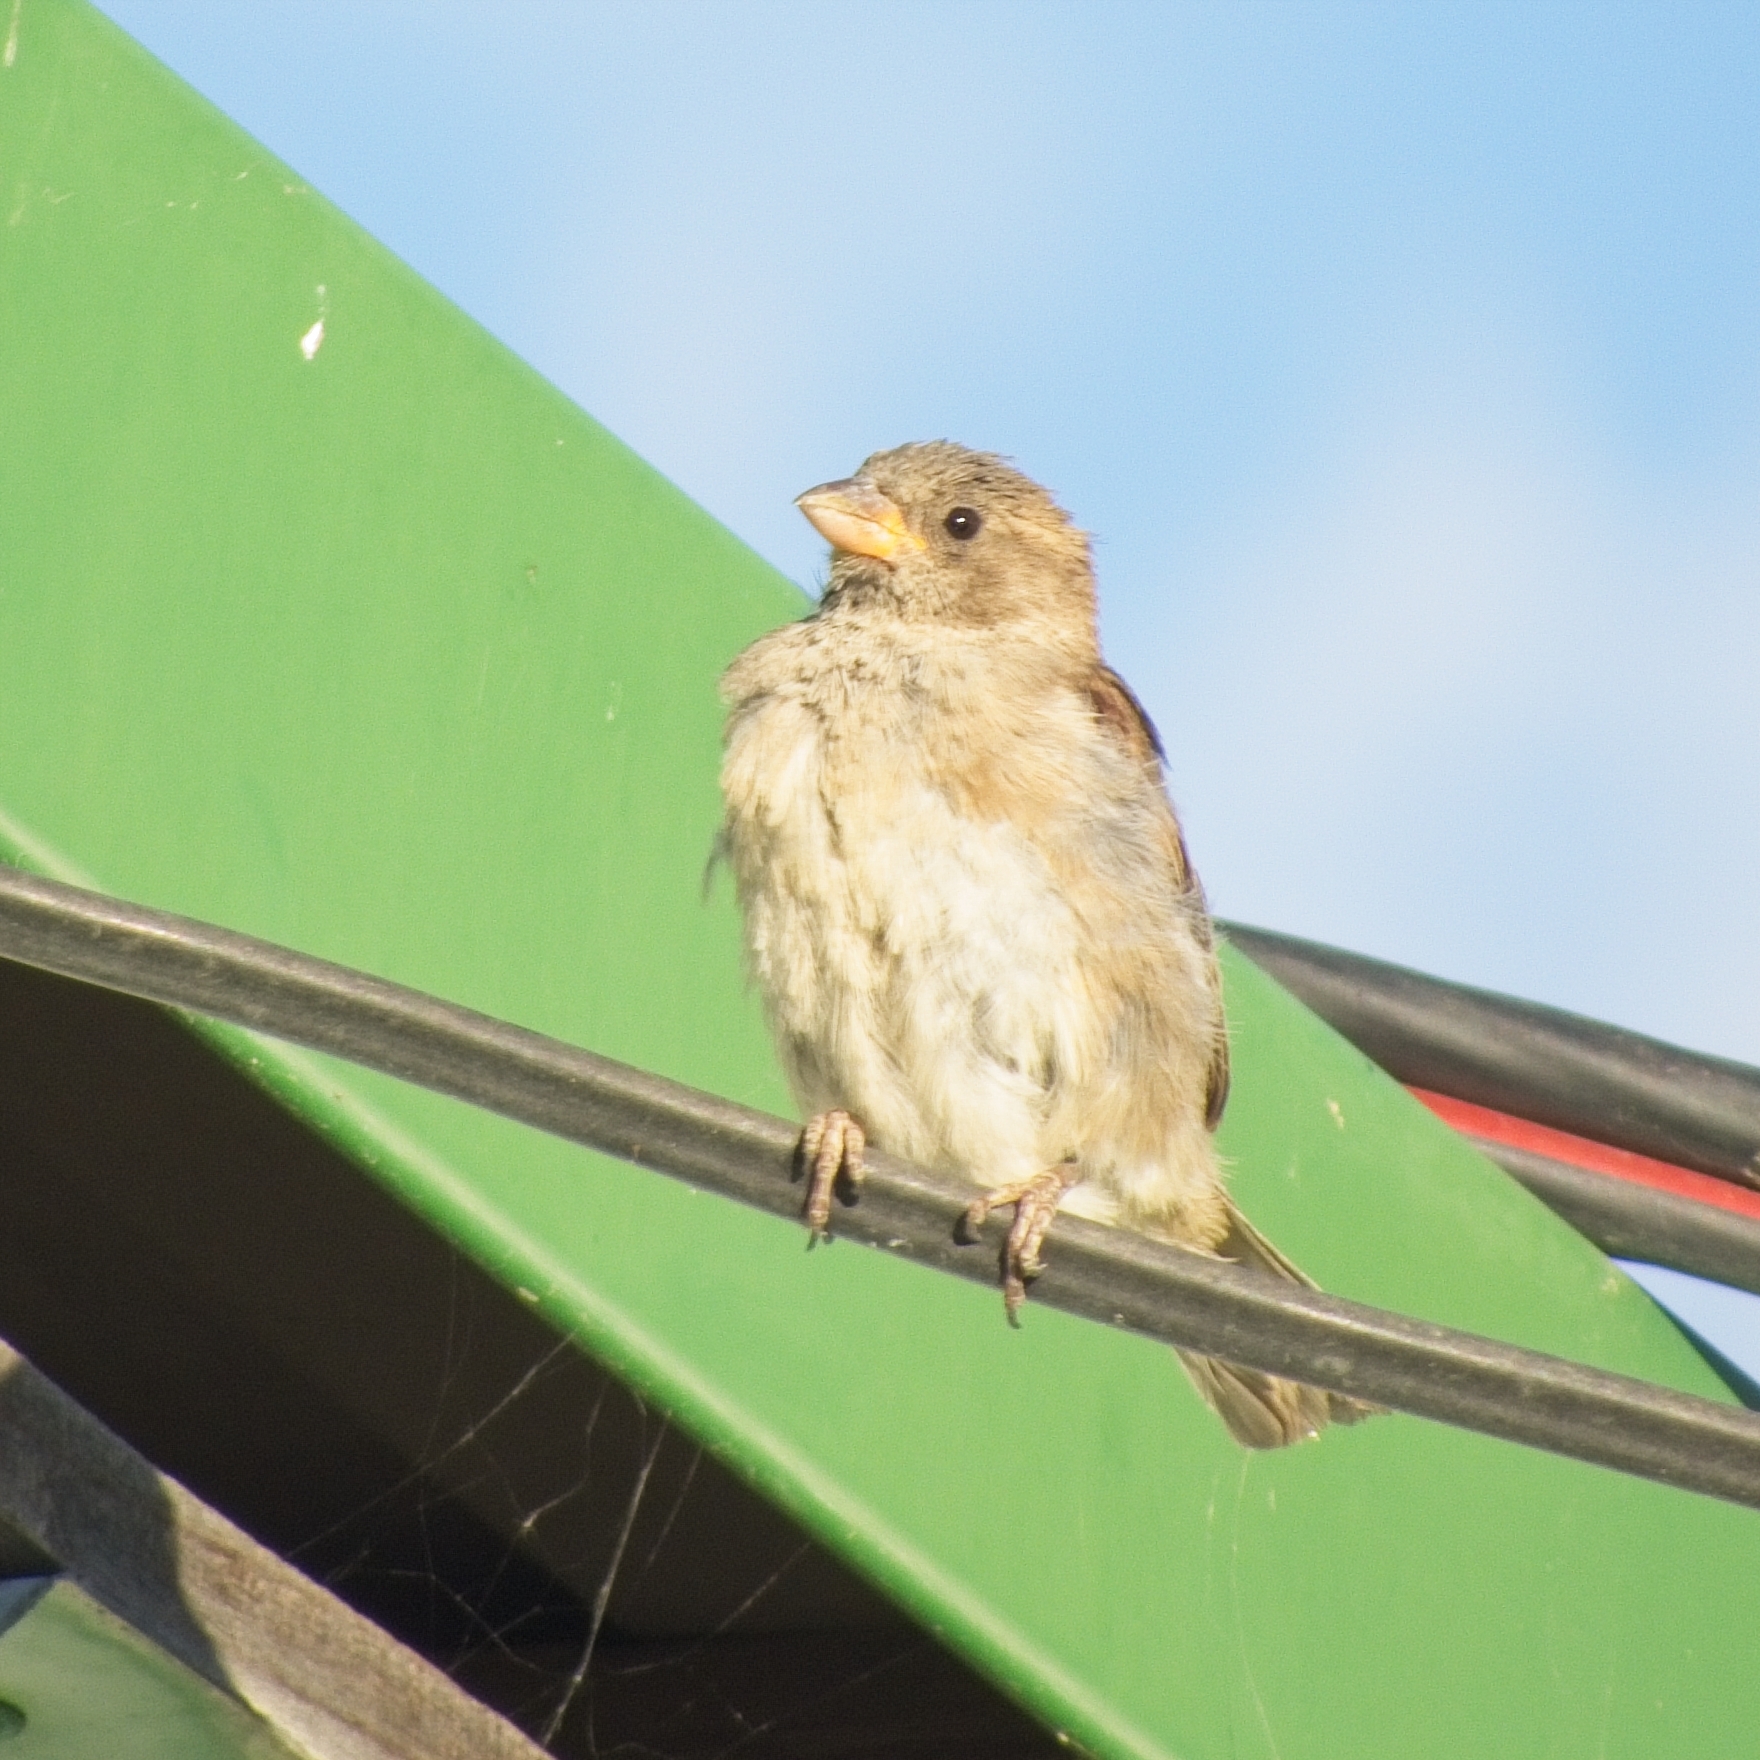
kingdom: Animalia
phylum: Chordata
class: Aves
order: Passeriformes
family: Passeridae
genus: Passer
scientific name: Passer domesticus
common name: House sparrow
